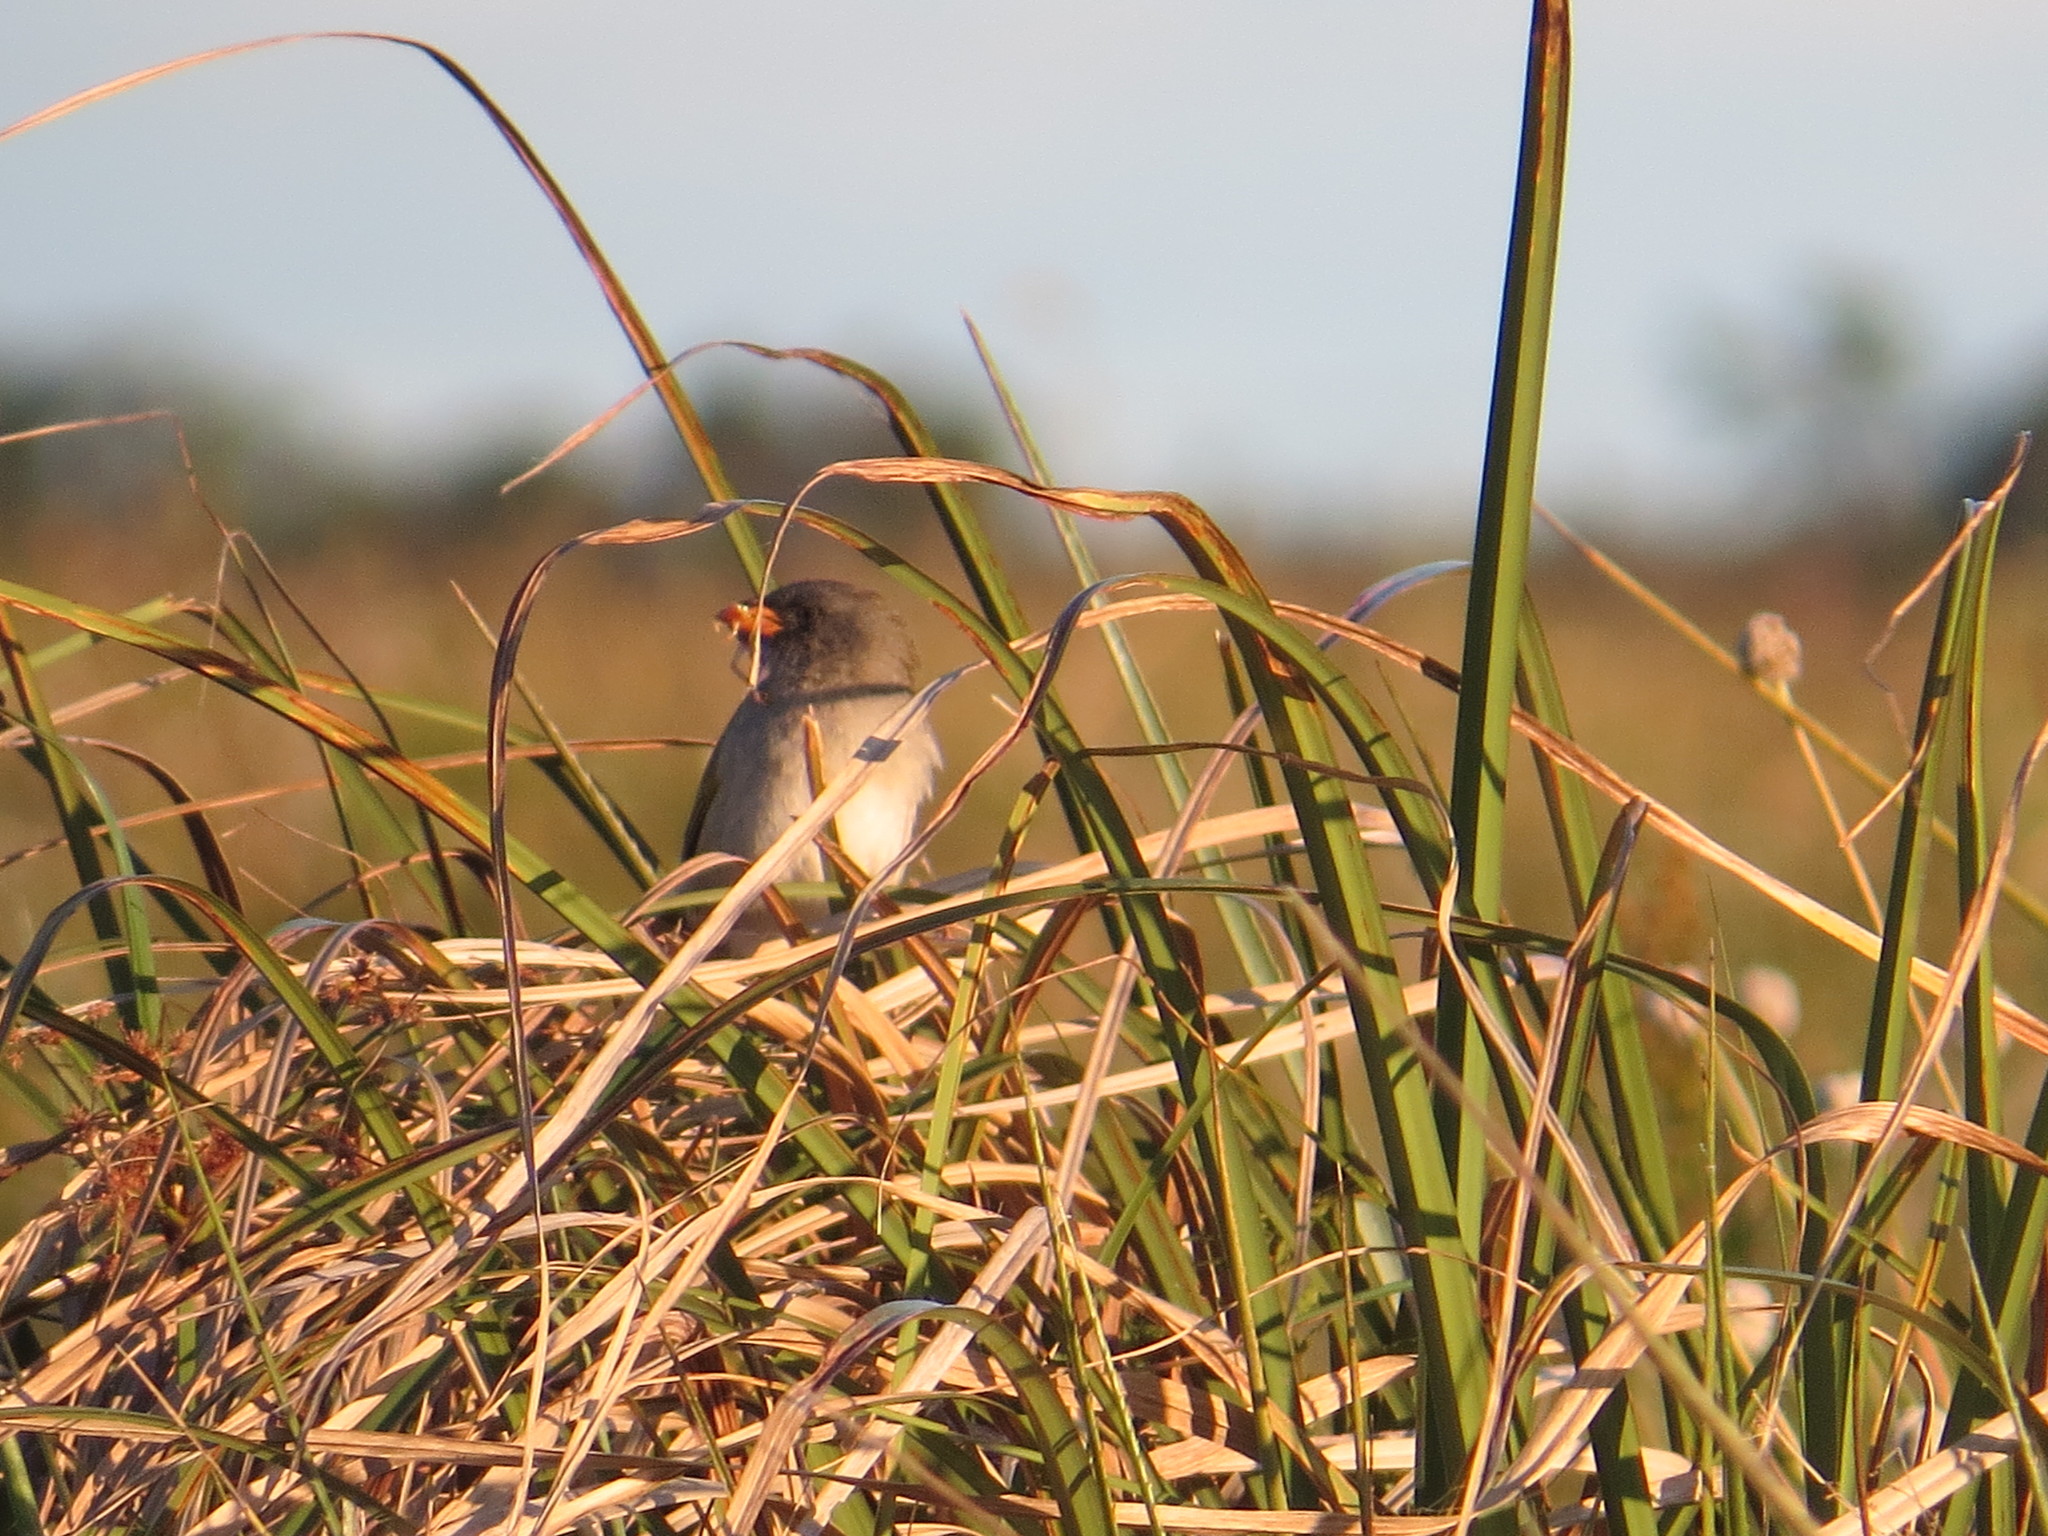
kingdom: Animalia
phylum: Chordata
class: Aves
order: Passeriformes
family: Thraupidae
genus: Embernagra
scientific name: Embernagra platensis
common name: Pampa finch
